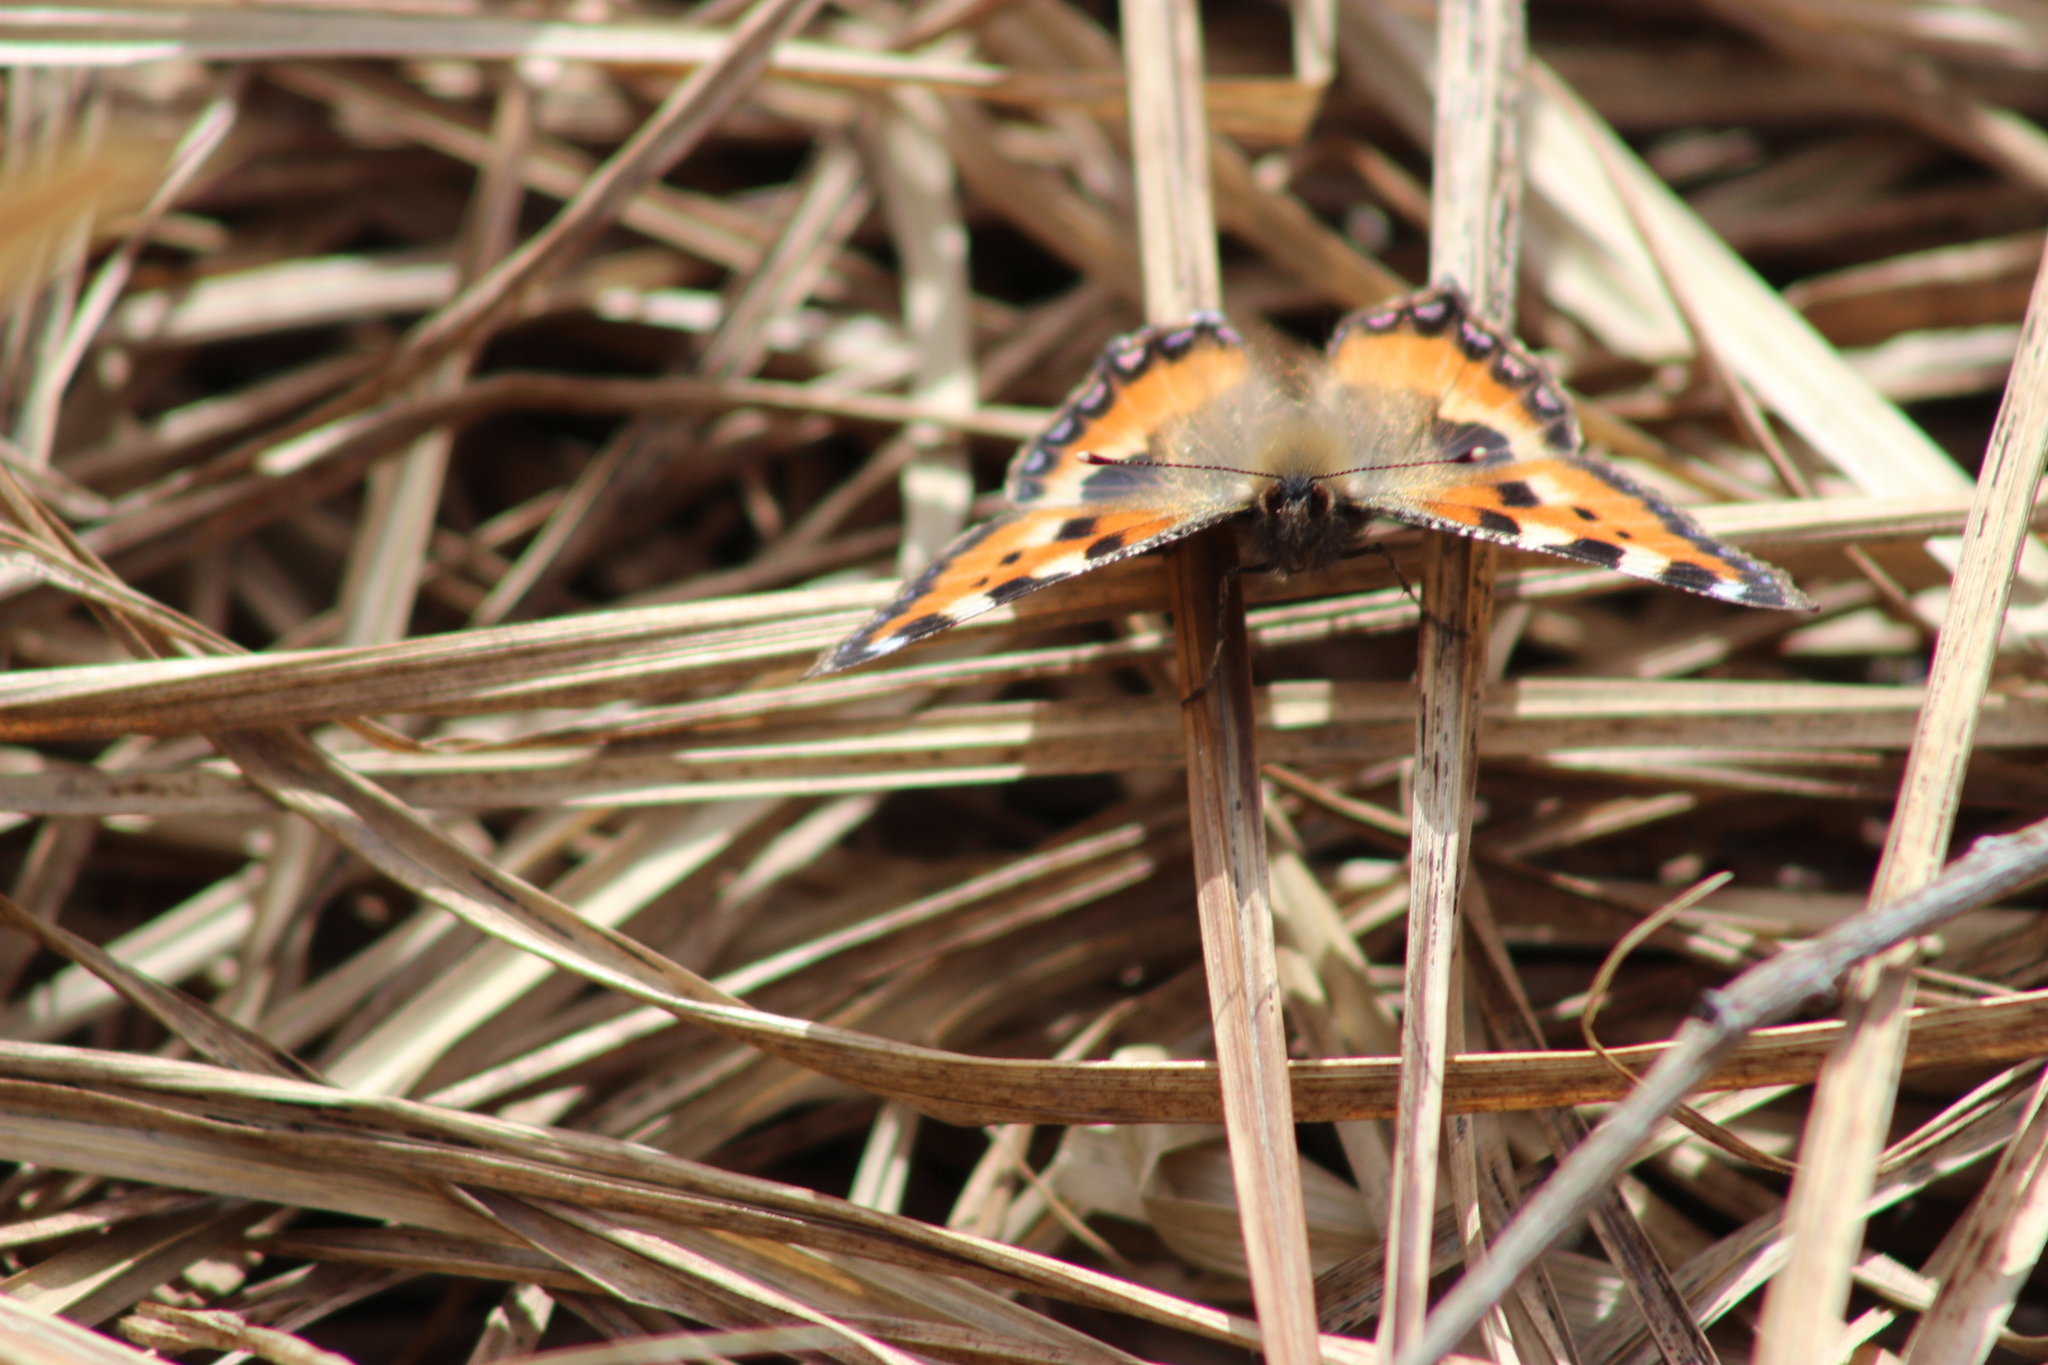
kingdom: Animalia
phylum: Arthropoda
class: Insecta
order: Lepidoptera
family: Nymphalidae
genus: Aglais
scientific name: Aglais urticae
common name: Small tortoiseshell
